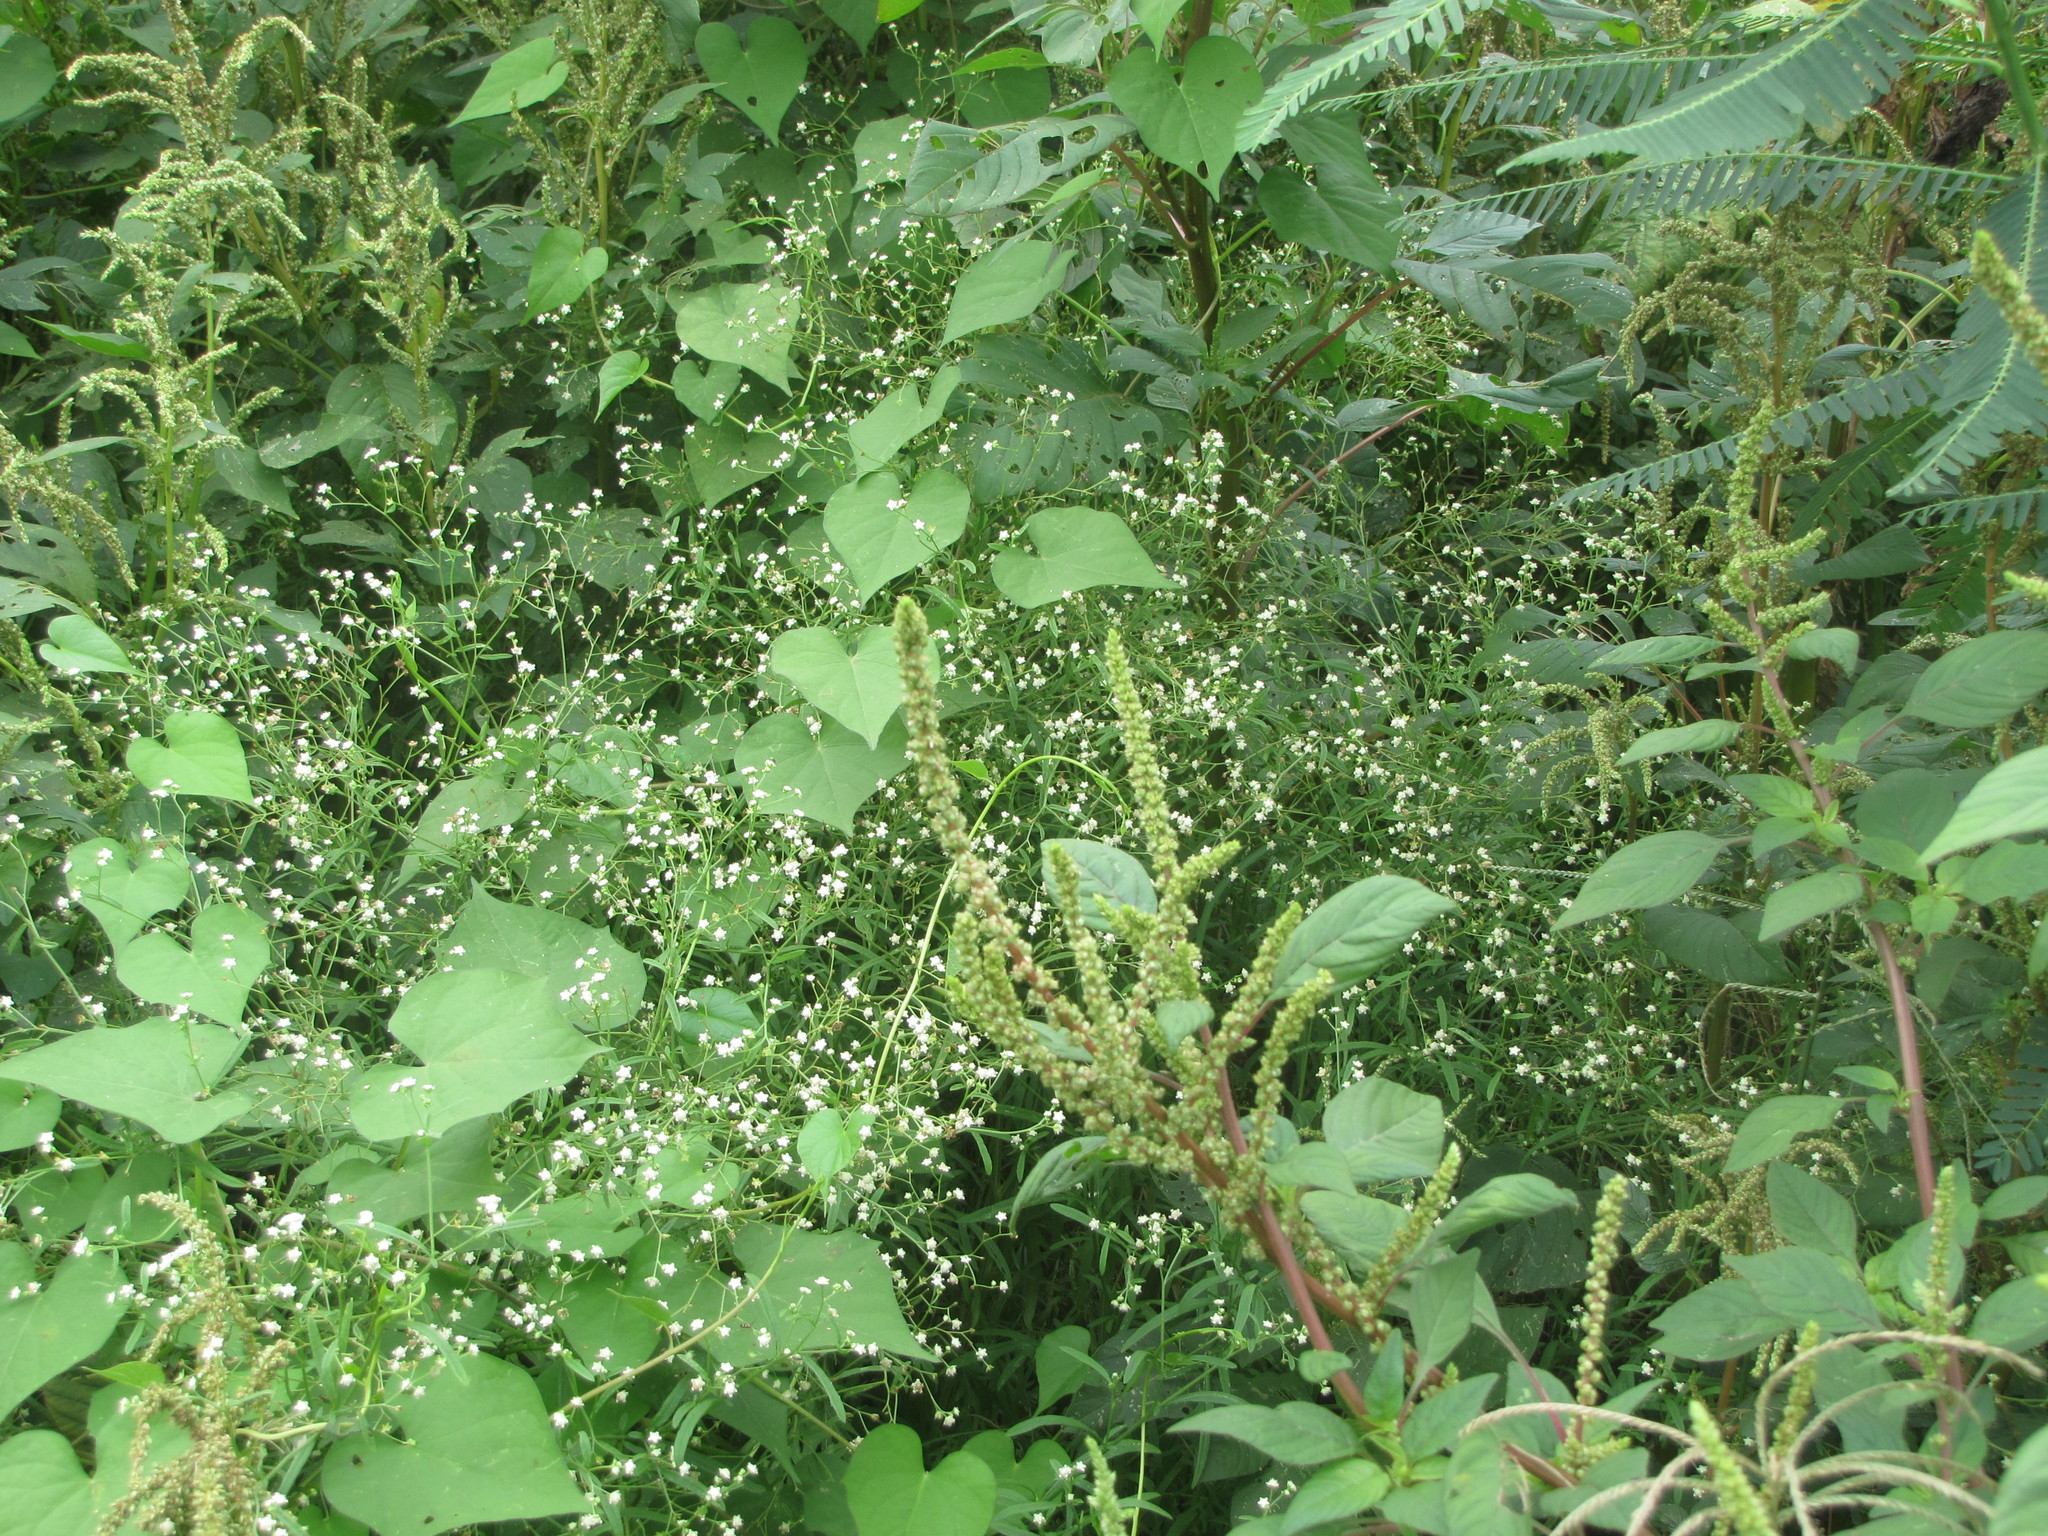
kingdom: Plantae
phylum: Tracheophyta
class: Magnoliopsida
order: Asterales
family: Asteraceae
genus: Parthenium
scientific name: Parthenium hysterophorus
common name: Santa maria feverfew
